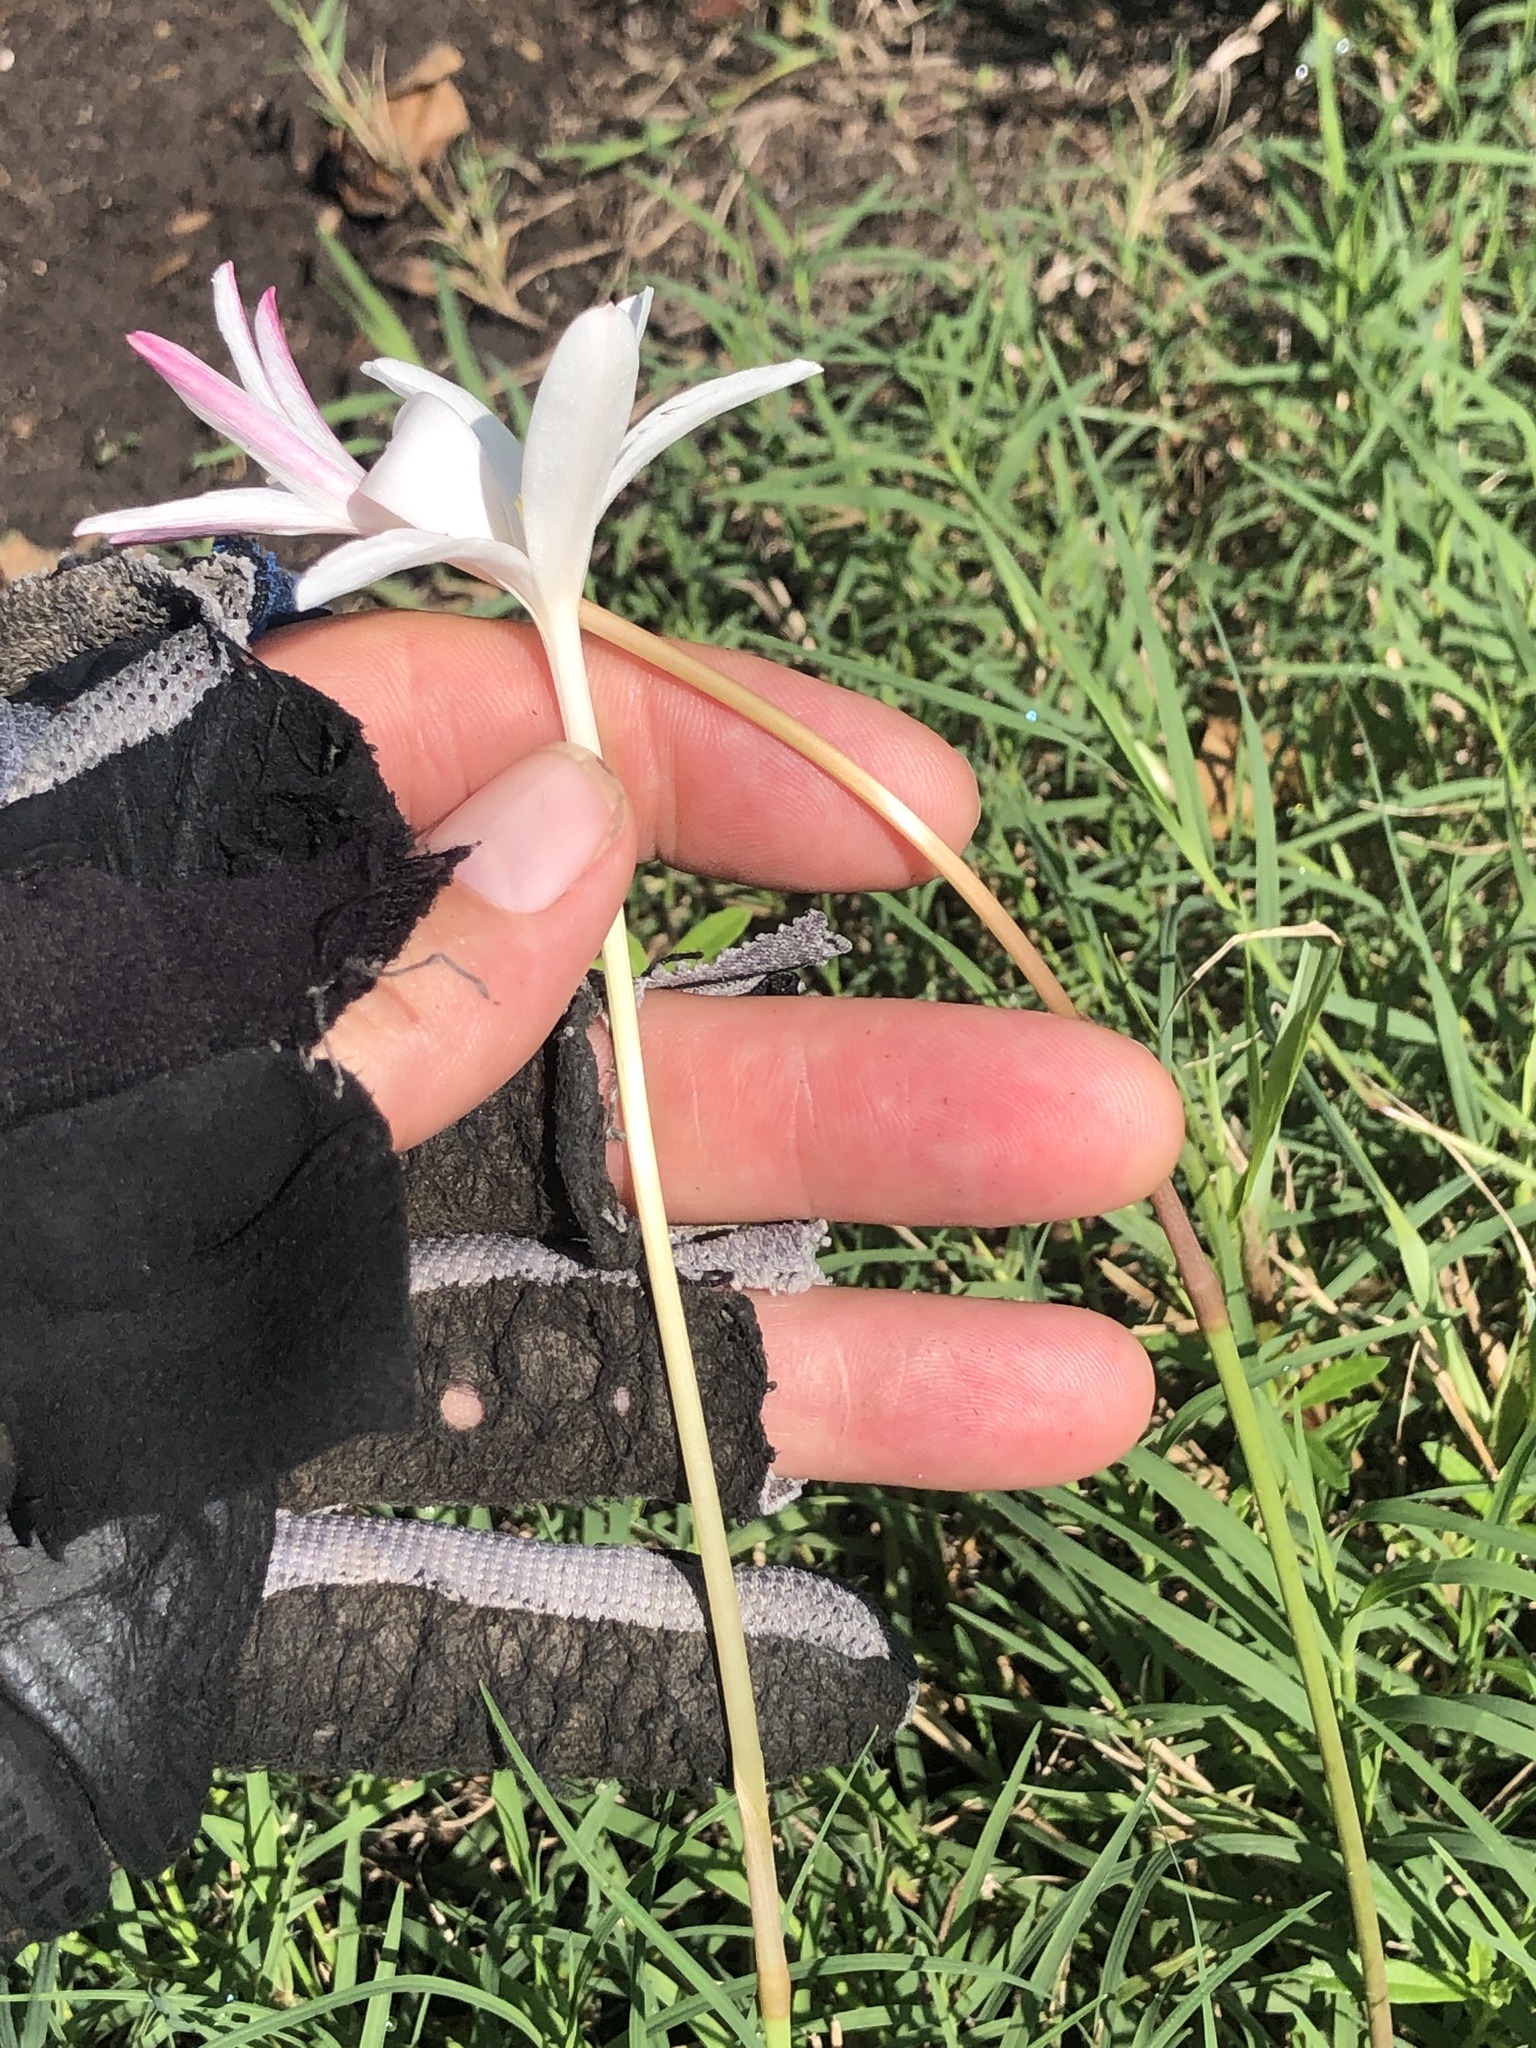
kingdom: Plantae
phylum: Tracheophyta
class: Liliopsida
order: Asparagales
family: Amaryllidaceae
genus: Zephyranthes
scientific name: Zephyranthes traubii
